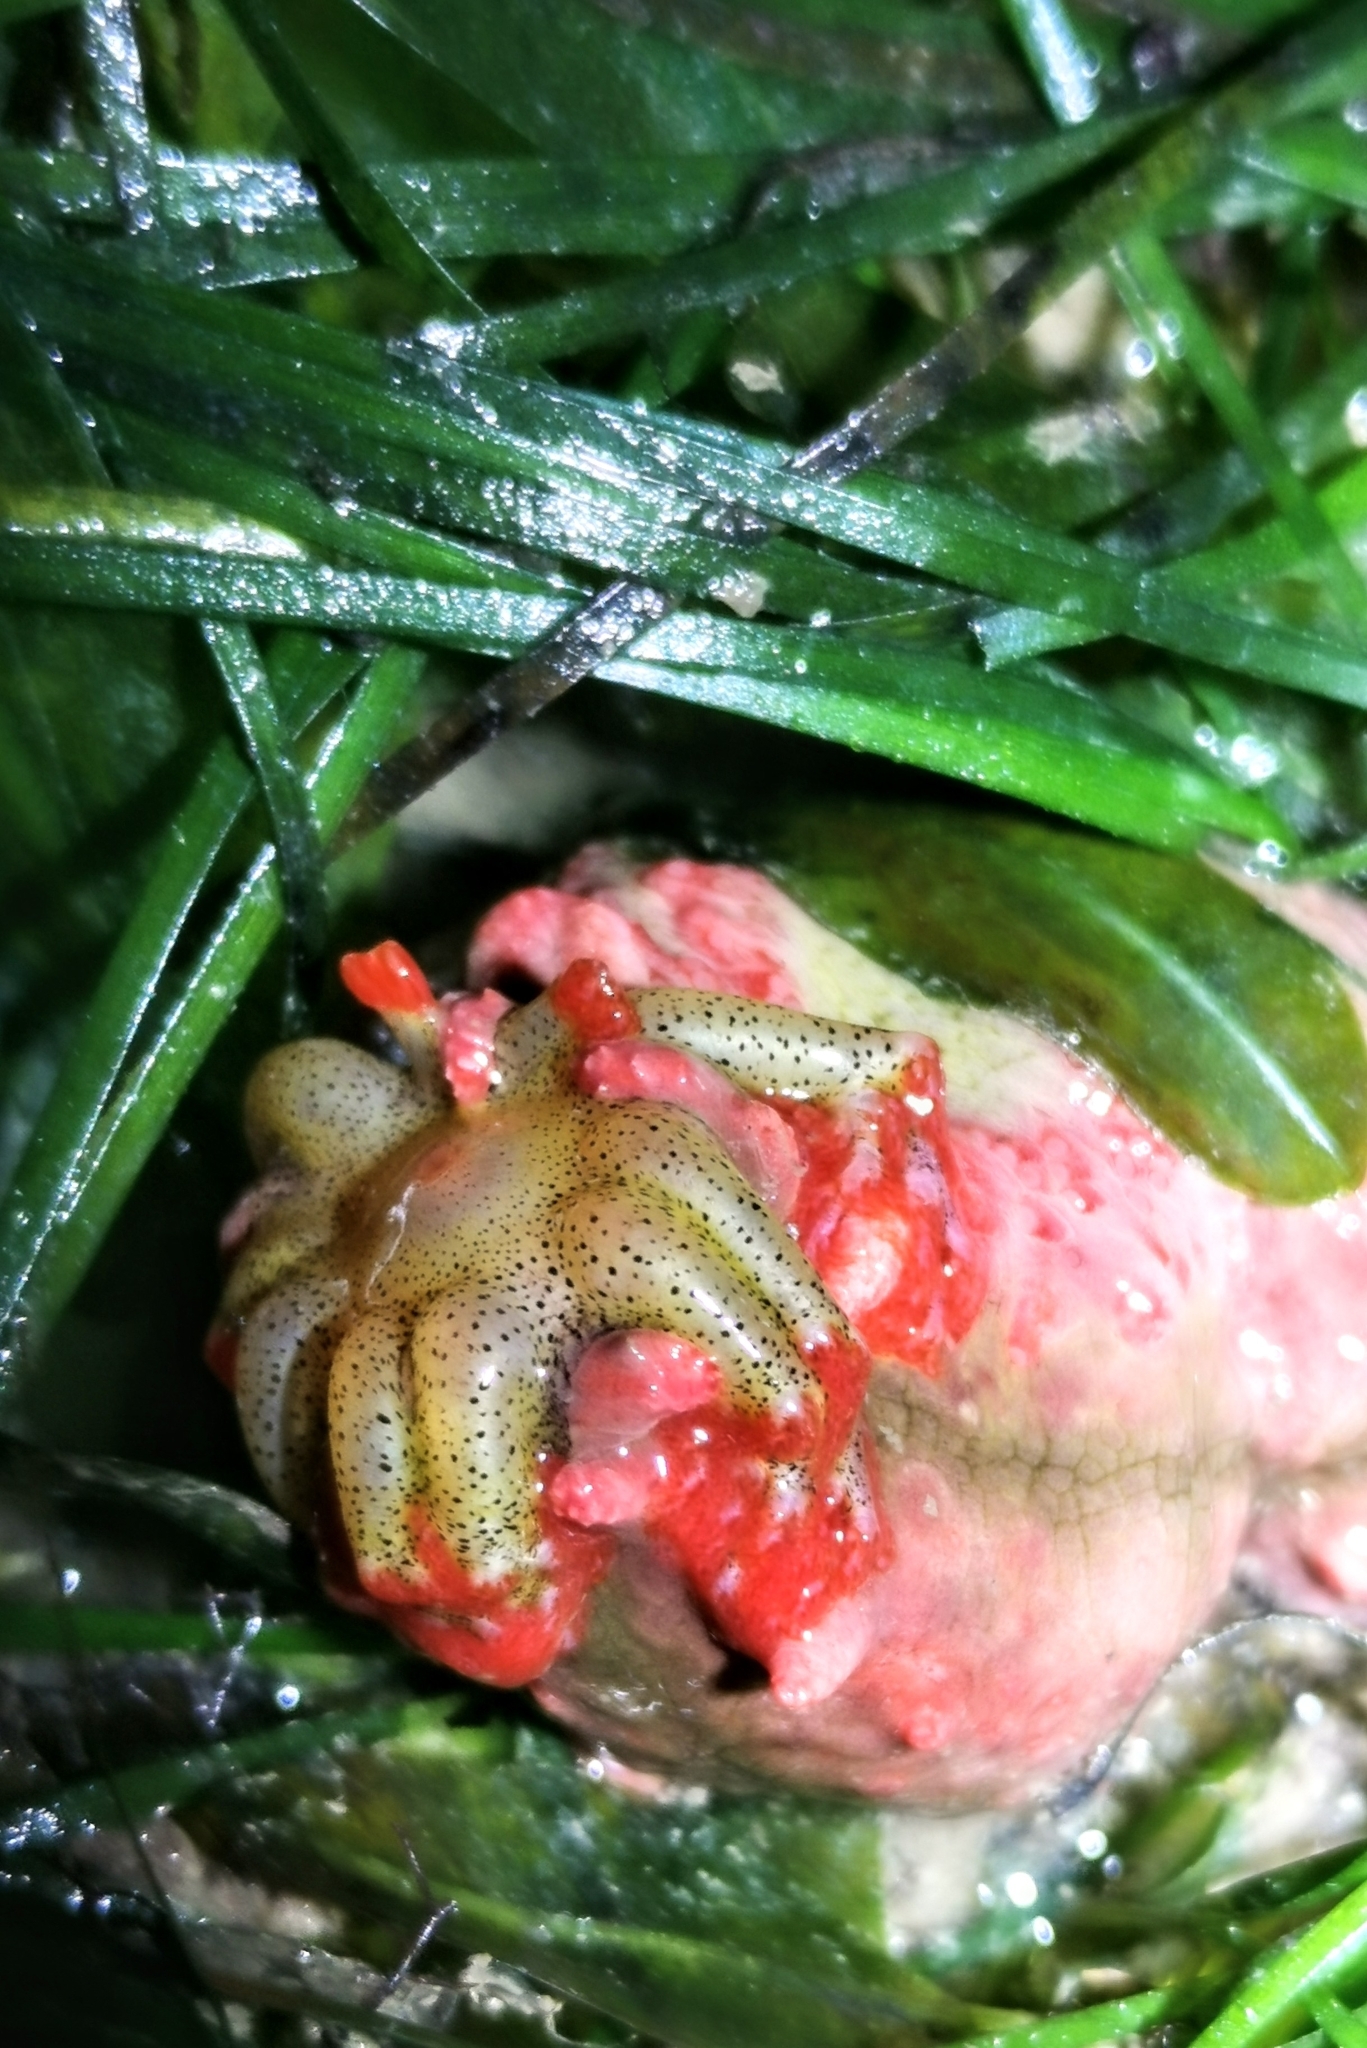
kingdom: Animalia
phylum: Echinodermata
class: Holothuroidea
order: Dendrochirotida
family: Cucumariidae
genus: Colochirus
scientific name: Colochirus quadrangularis
